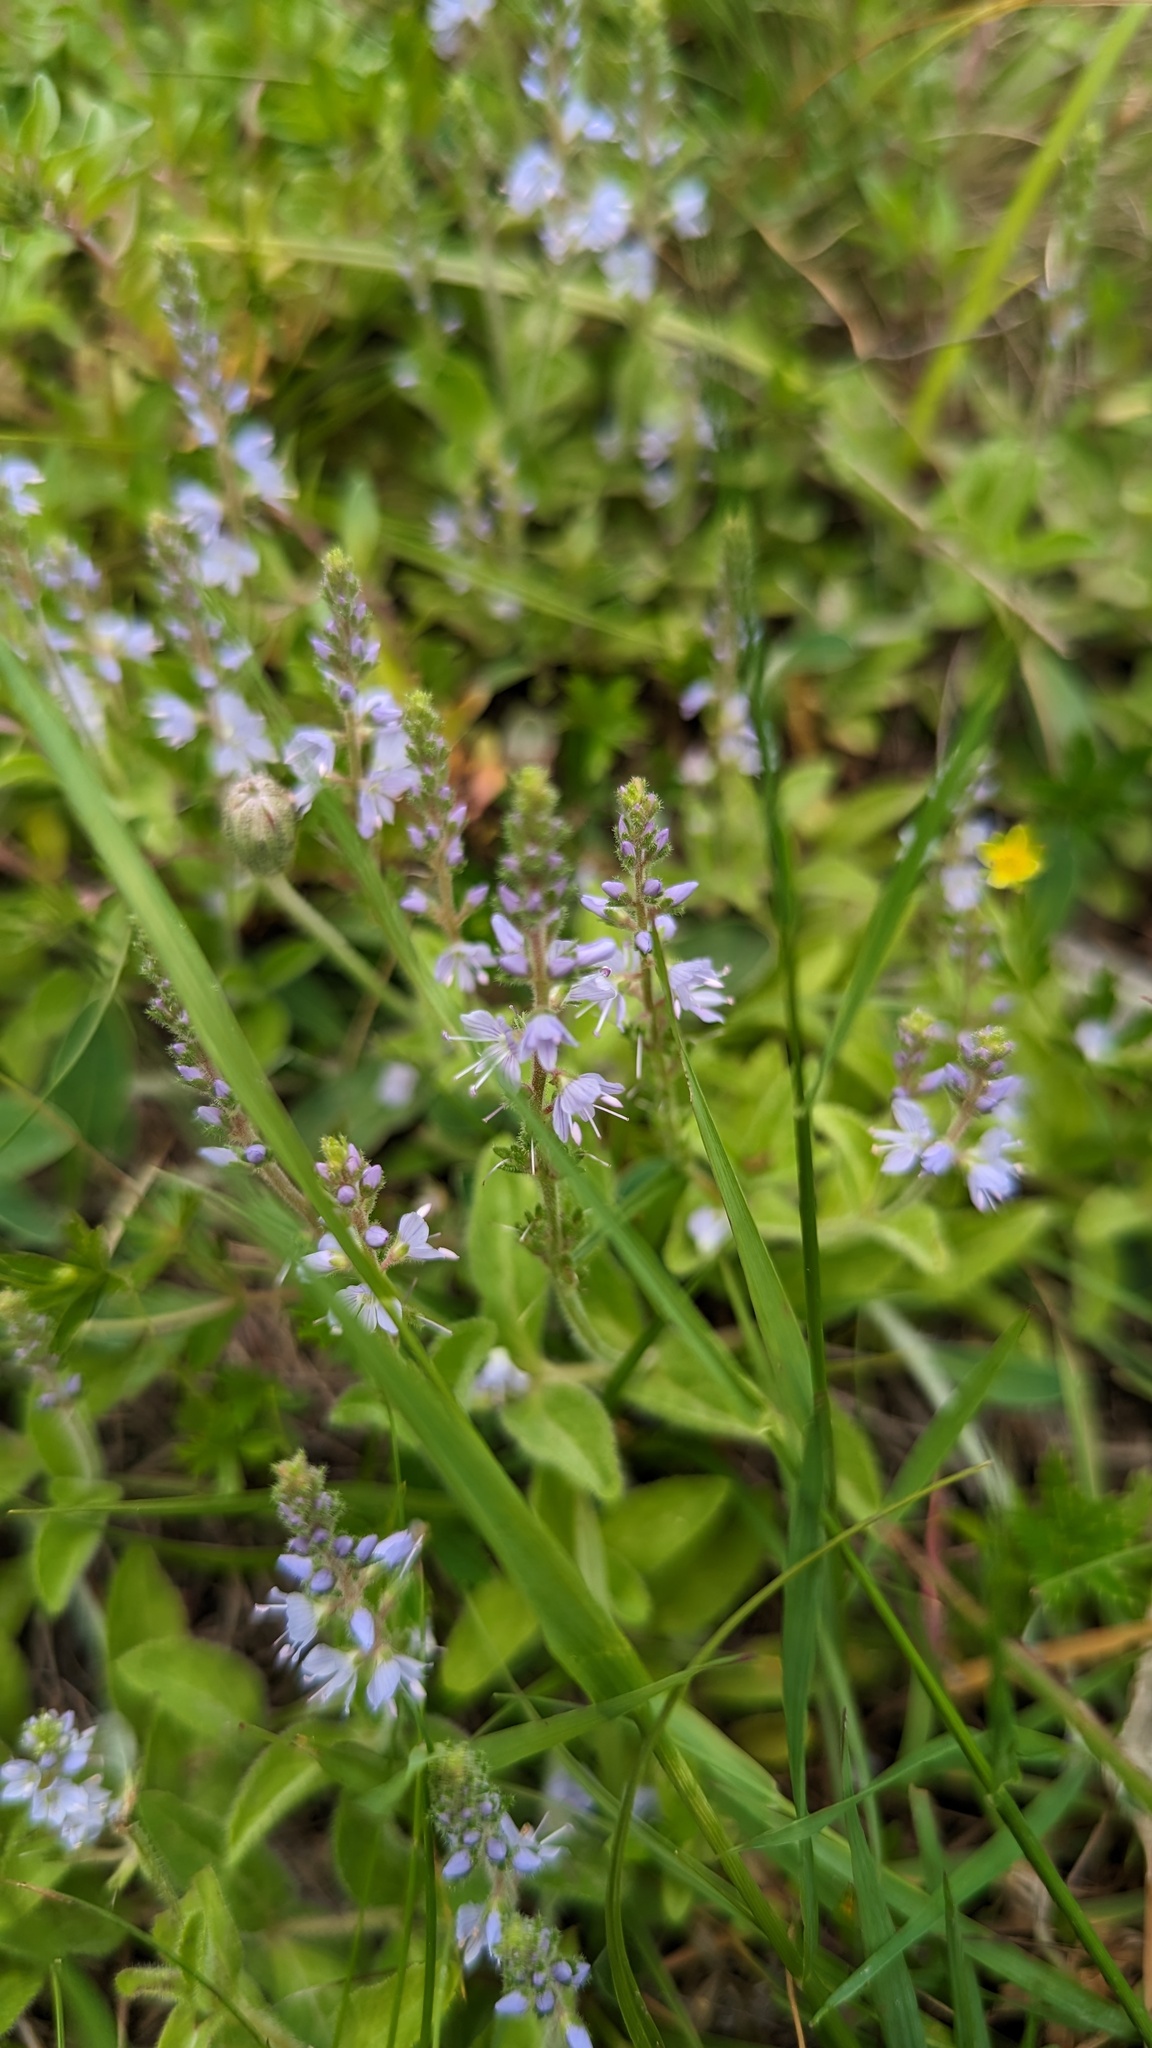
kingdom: Plantae
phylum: Tracheophyta
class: Magnoliopsida
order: Lamiales
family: Plantaginaceae
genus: Veronica
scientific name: Veronica officinalis
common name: Common speedwell
